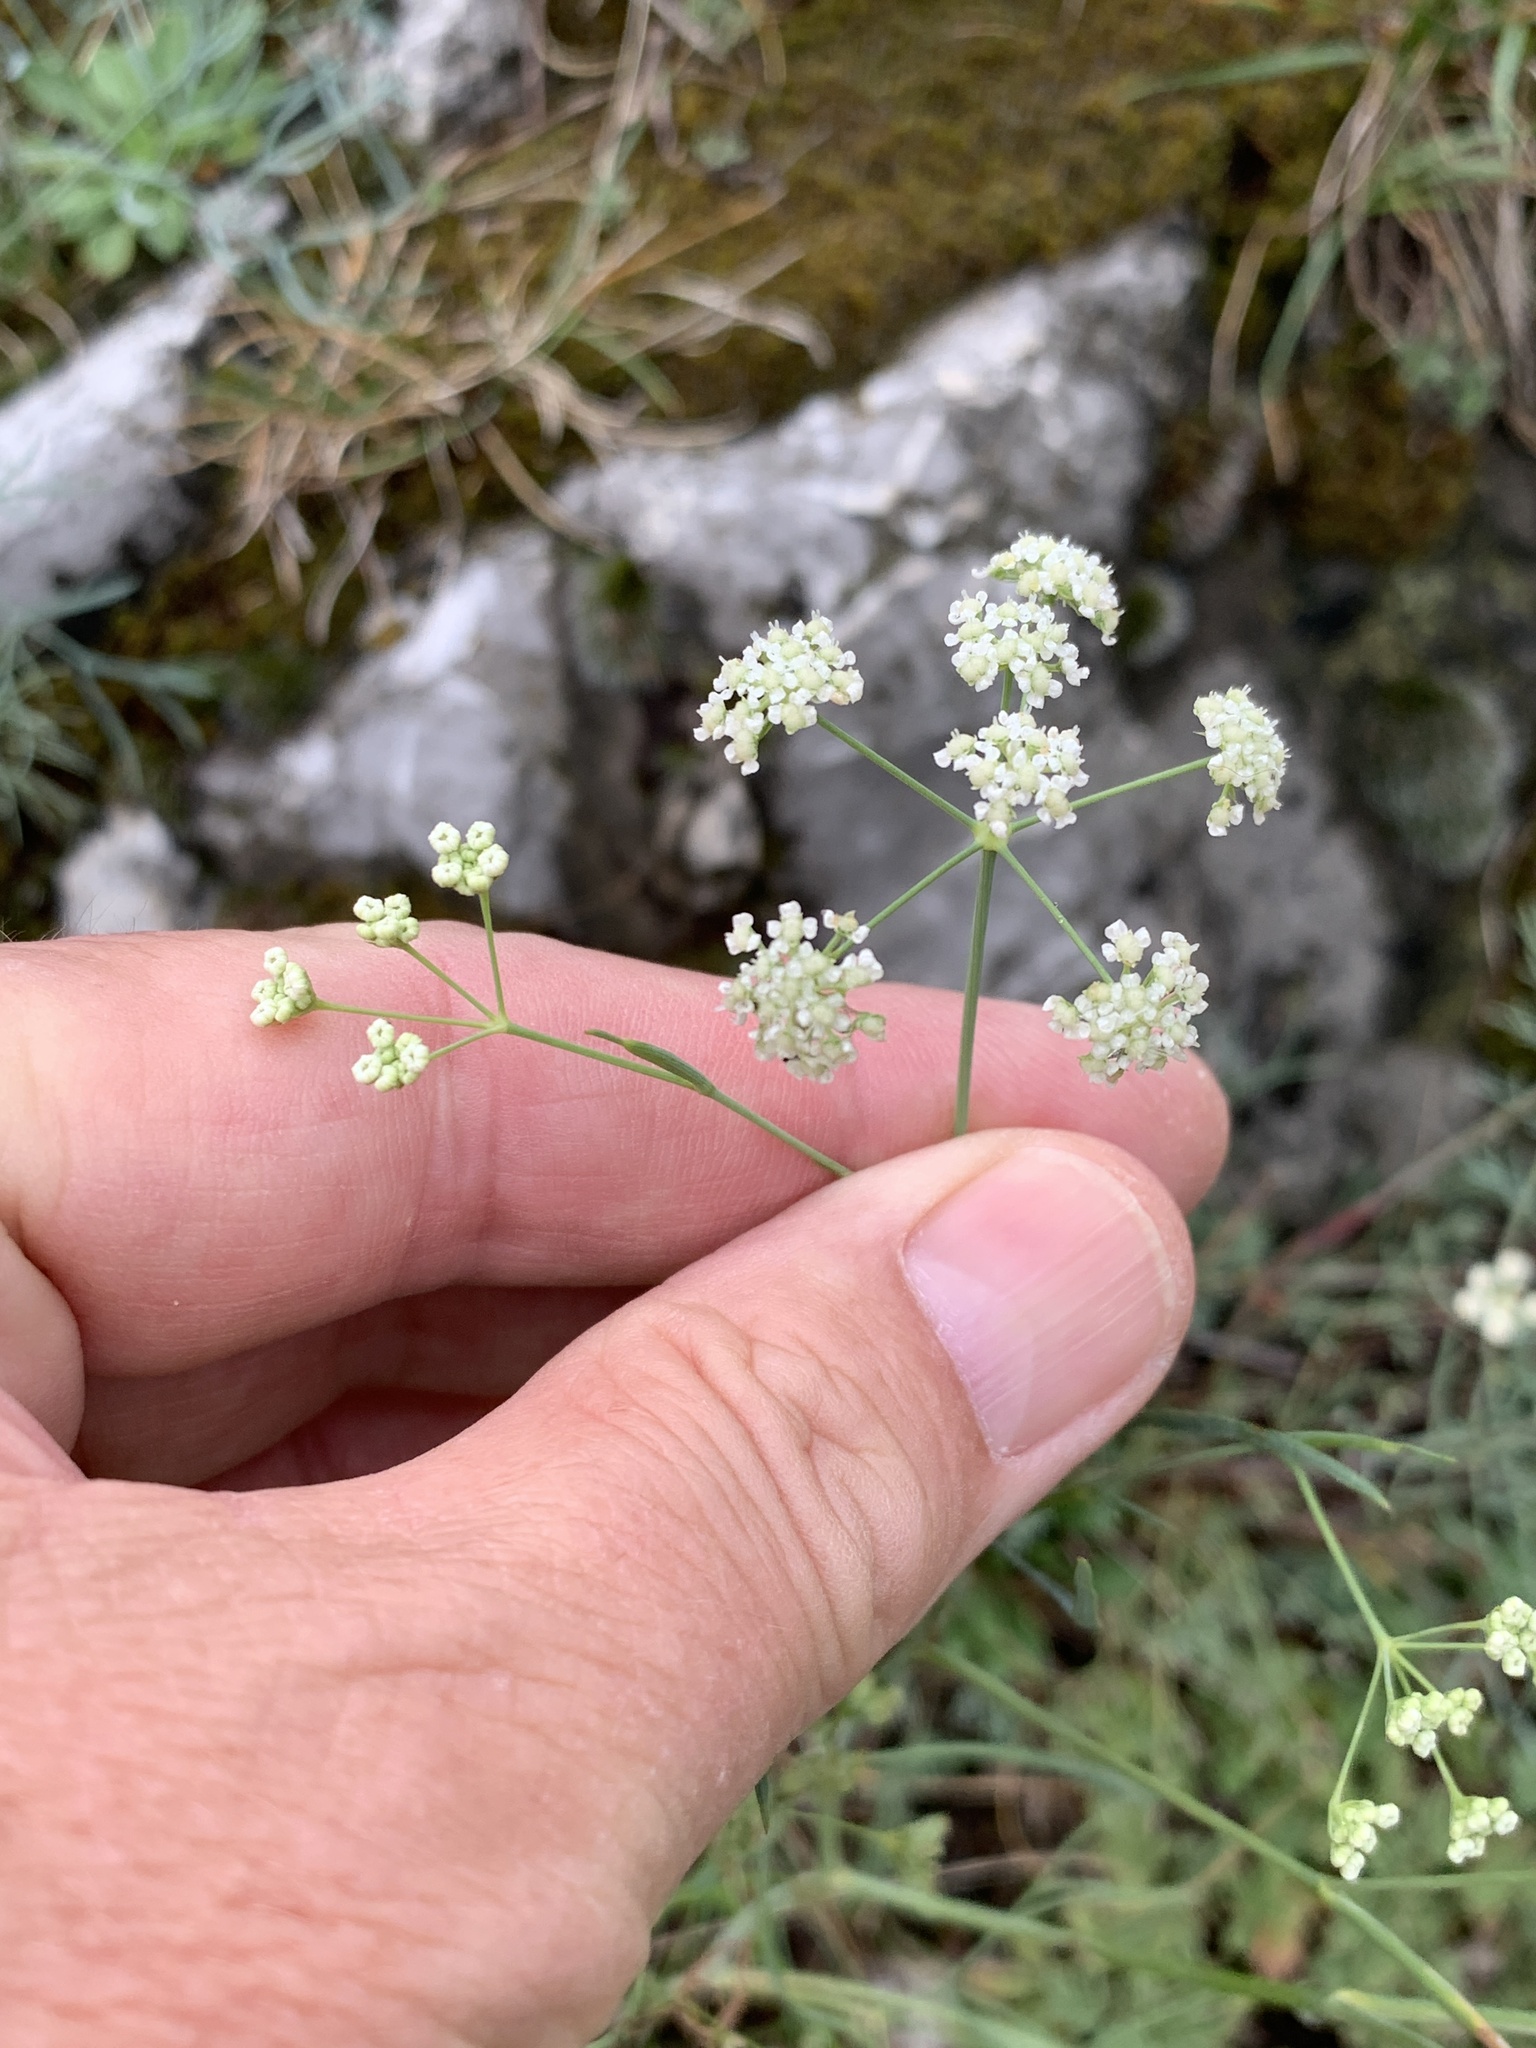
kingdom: Plantae
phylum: Tracheophyta
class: Magnoliopsida
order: Apiales
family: Apiaceae
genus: Seseli
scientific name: Seseli osseum
